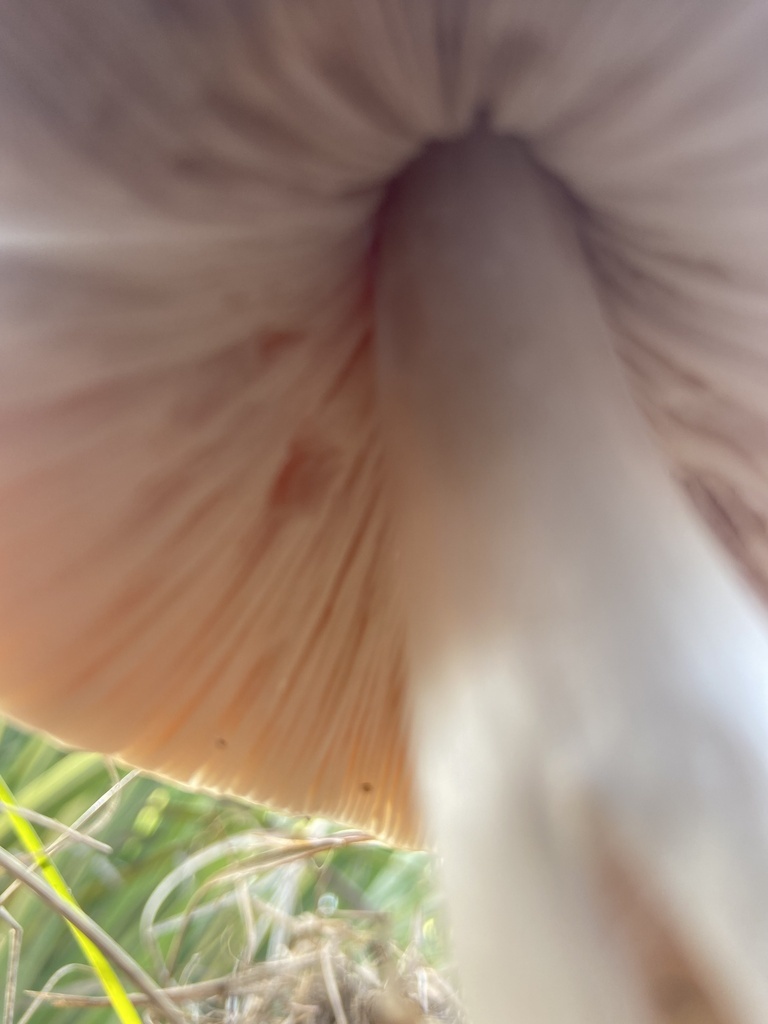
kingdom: Fungi
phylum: Basidiomycota
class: Agaricomycetes
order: Agaricales
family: Pluteaceae
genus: Volvopluteus
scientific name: Volvopluteus gloiocephalus
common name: Stubble rosegill
